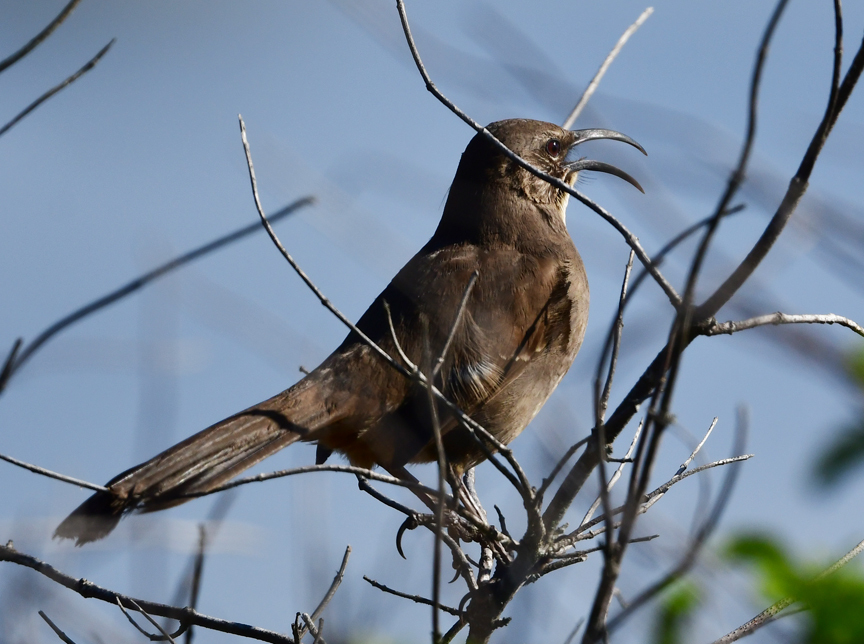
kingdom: Animalia
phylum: Chordata
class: Aves
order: Passeriformes
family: Mimidae
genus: Toxostoma
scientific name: Toxostoma redivivum
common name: California thrasher
